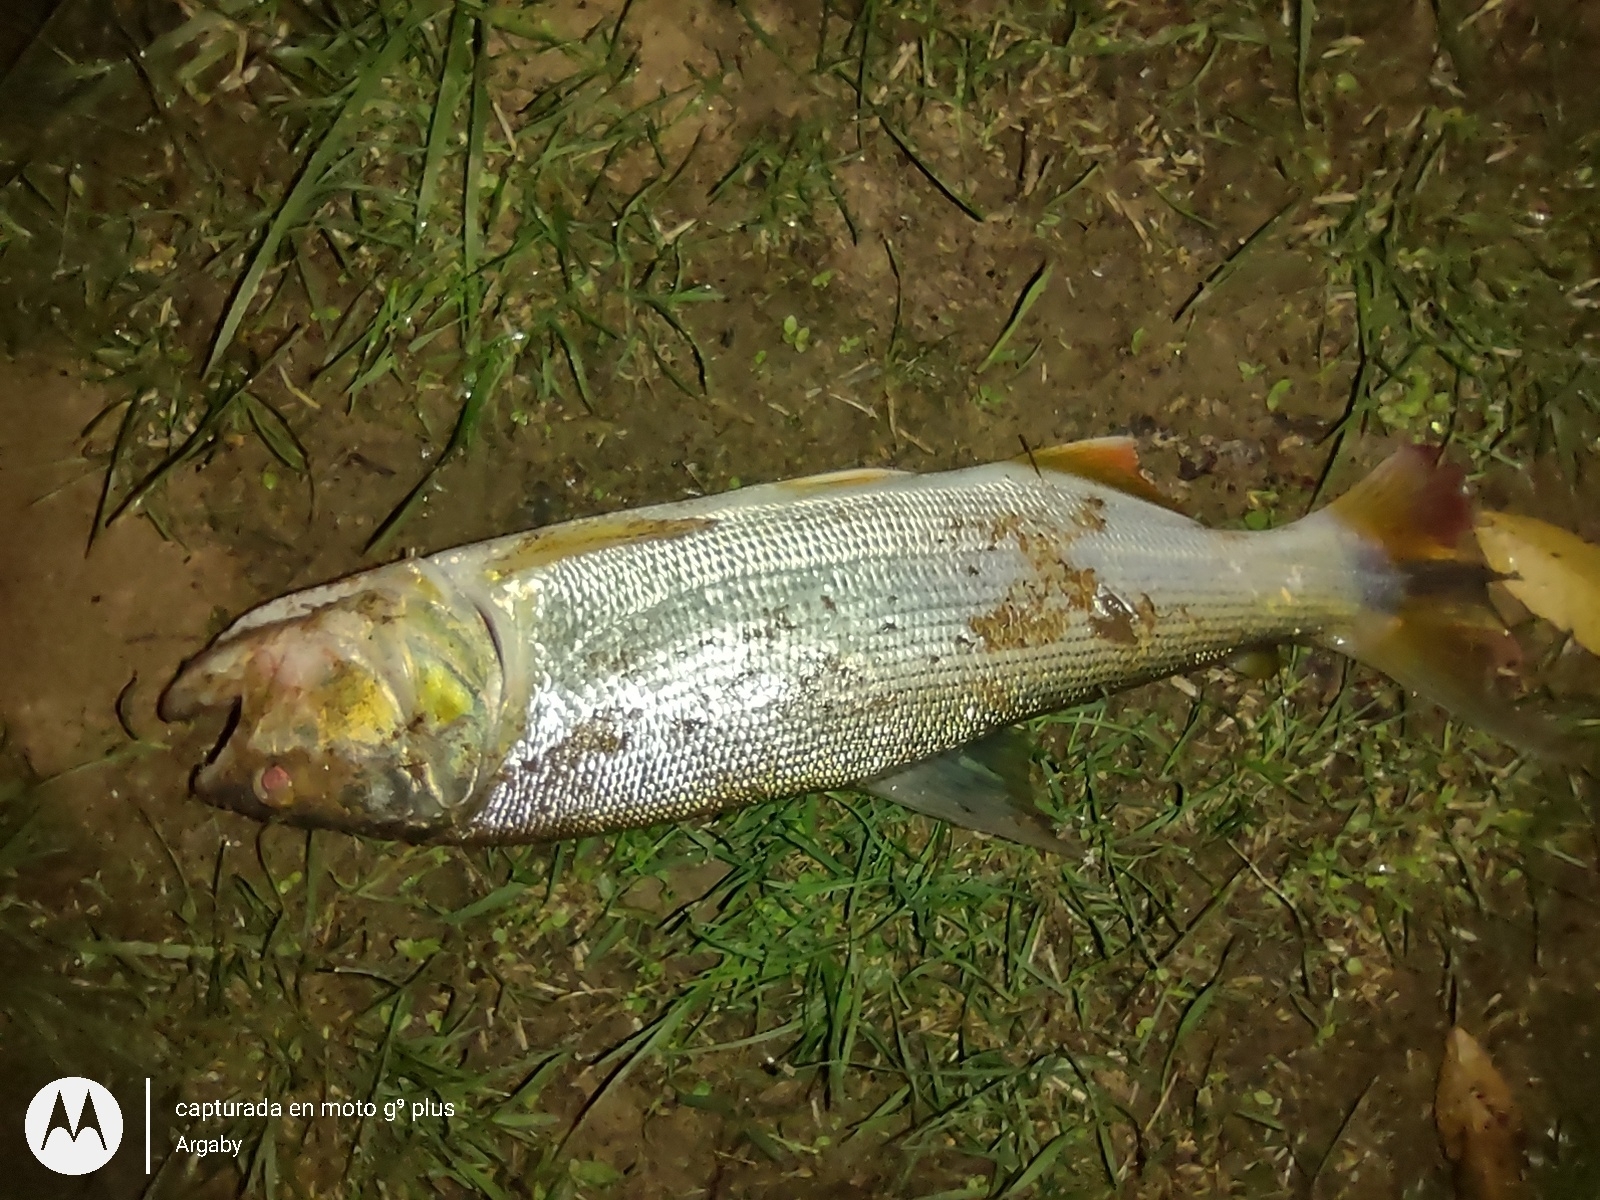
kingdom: Animalia
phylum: Chordata
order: Characiformes
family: Bryconidae
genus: Salminus
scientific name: Salminus brasiliensis
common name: Dorado
